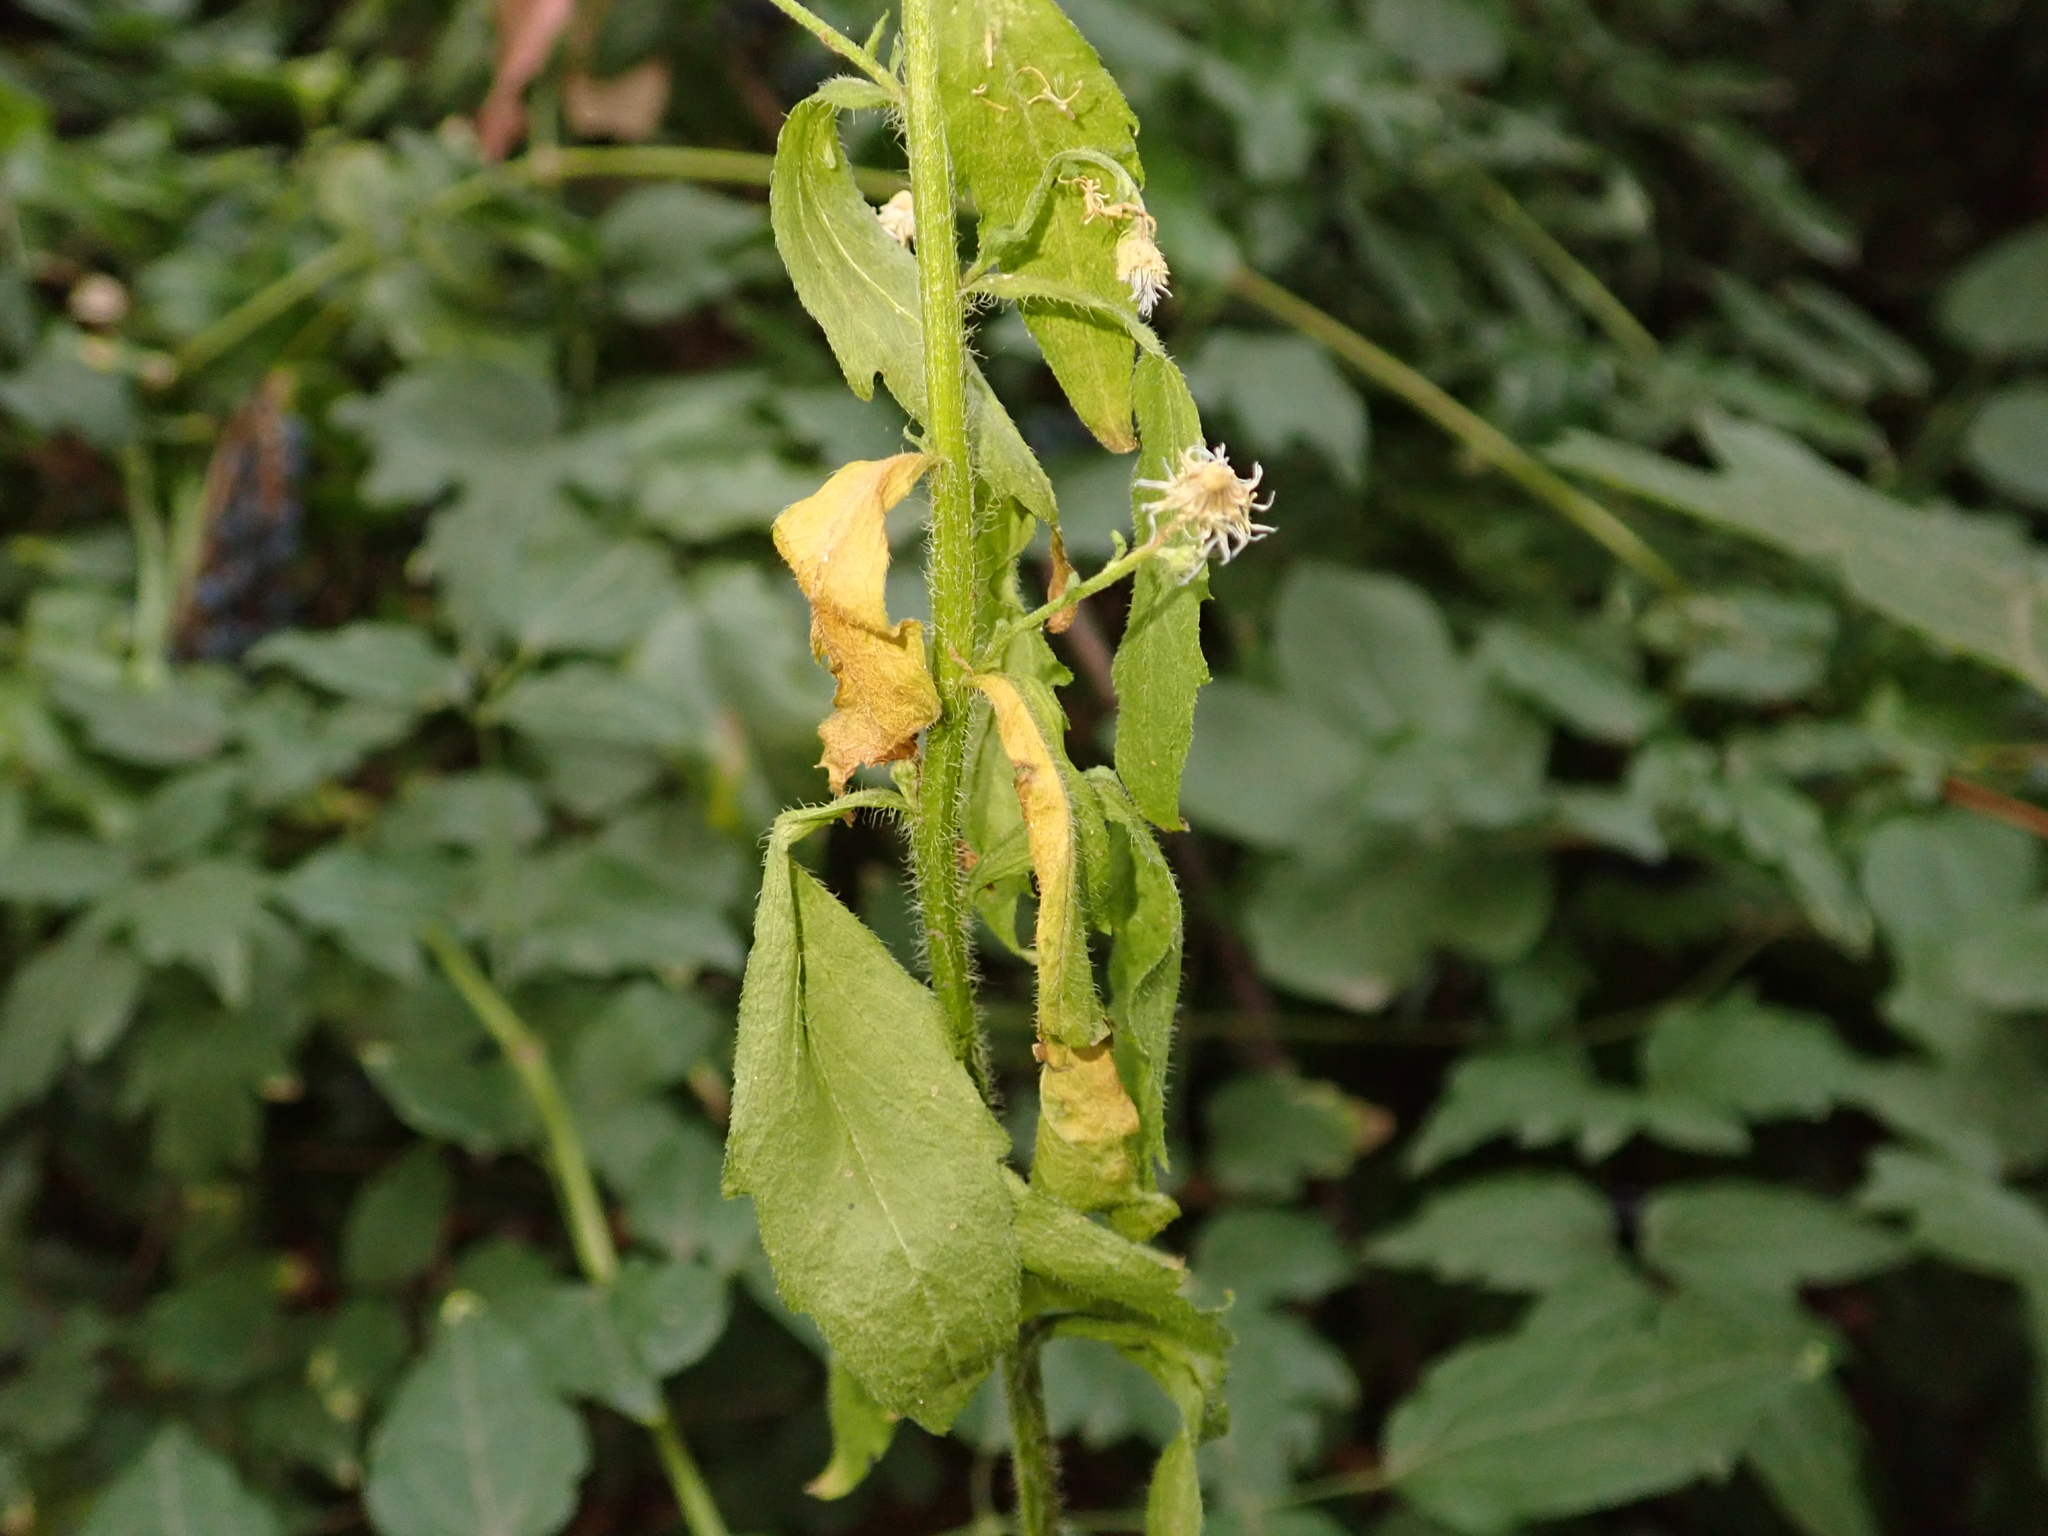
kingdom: Plantae
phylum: Tracheophyta
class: Magnoliopsida
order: Asterales
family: Asteraceae
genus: Erigeron
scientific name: Erigeron annuus
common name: Tall fleabane
